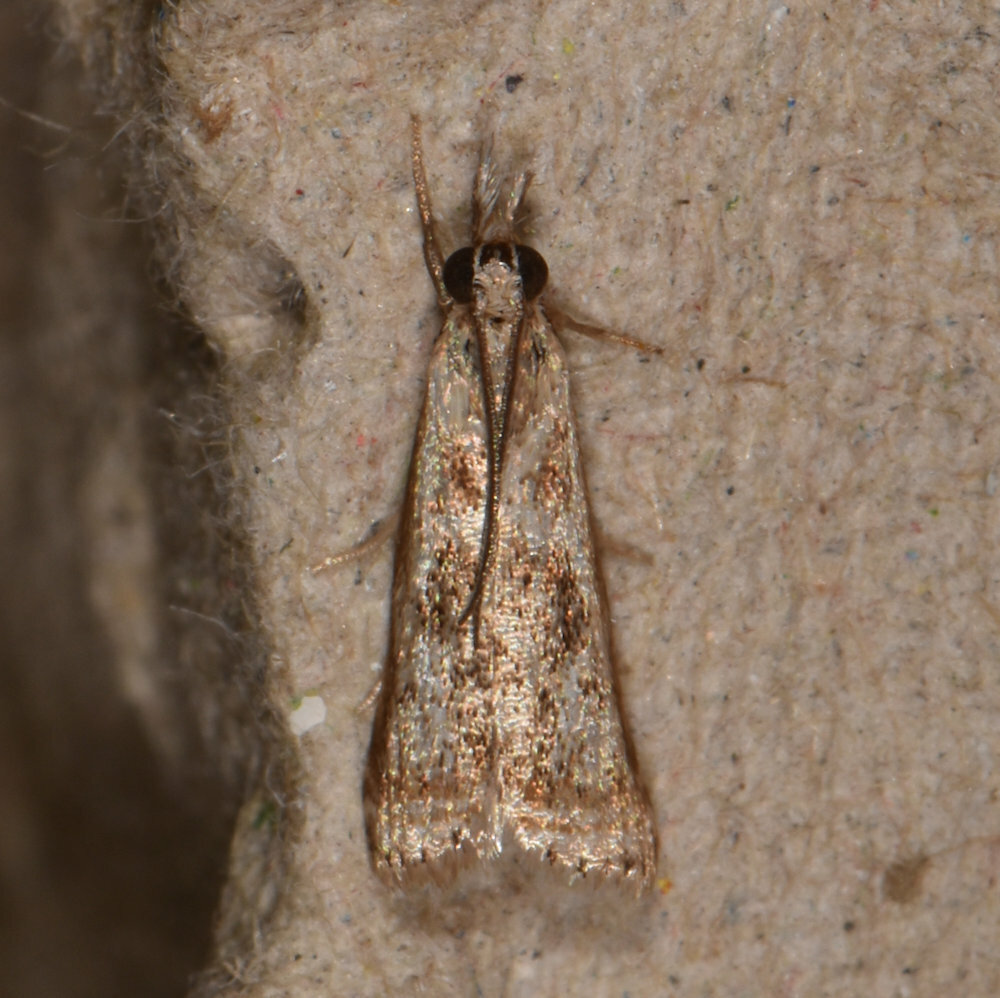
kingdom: Animalia
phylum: Arthropoda
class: Insecta
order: Lepidoptera
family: Crambidae
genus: Microcrambus
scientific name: Microcrambus elegans
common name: Elegant grass-veneer
